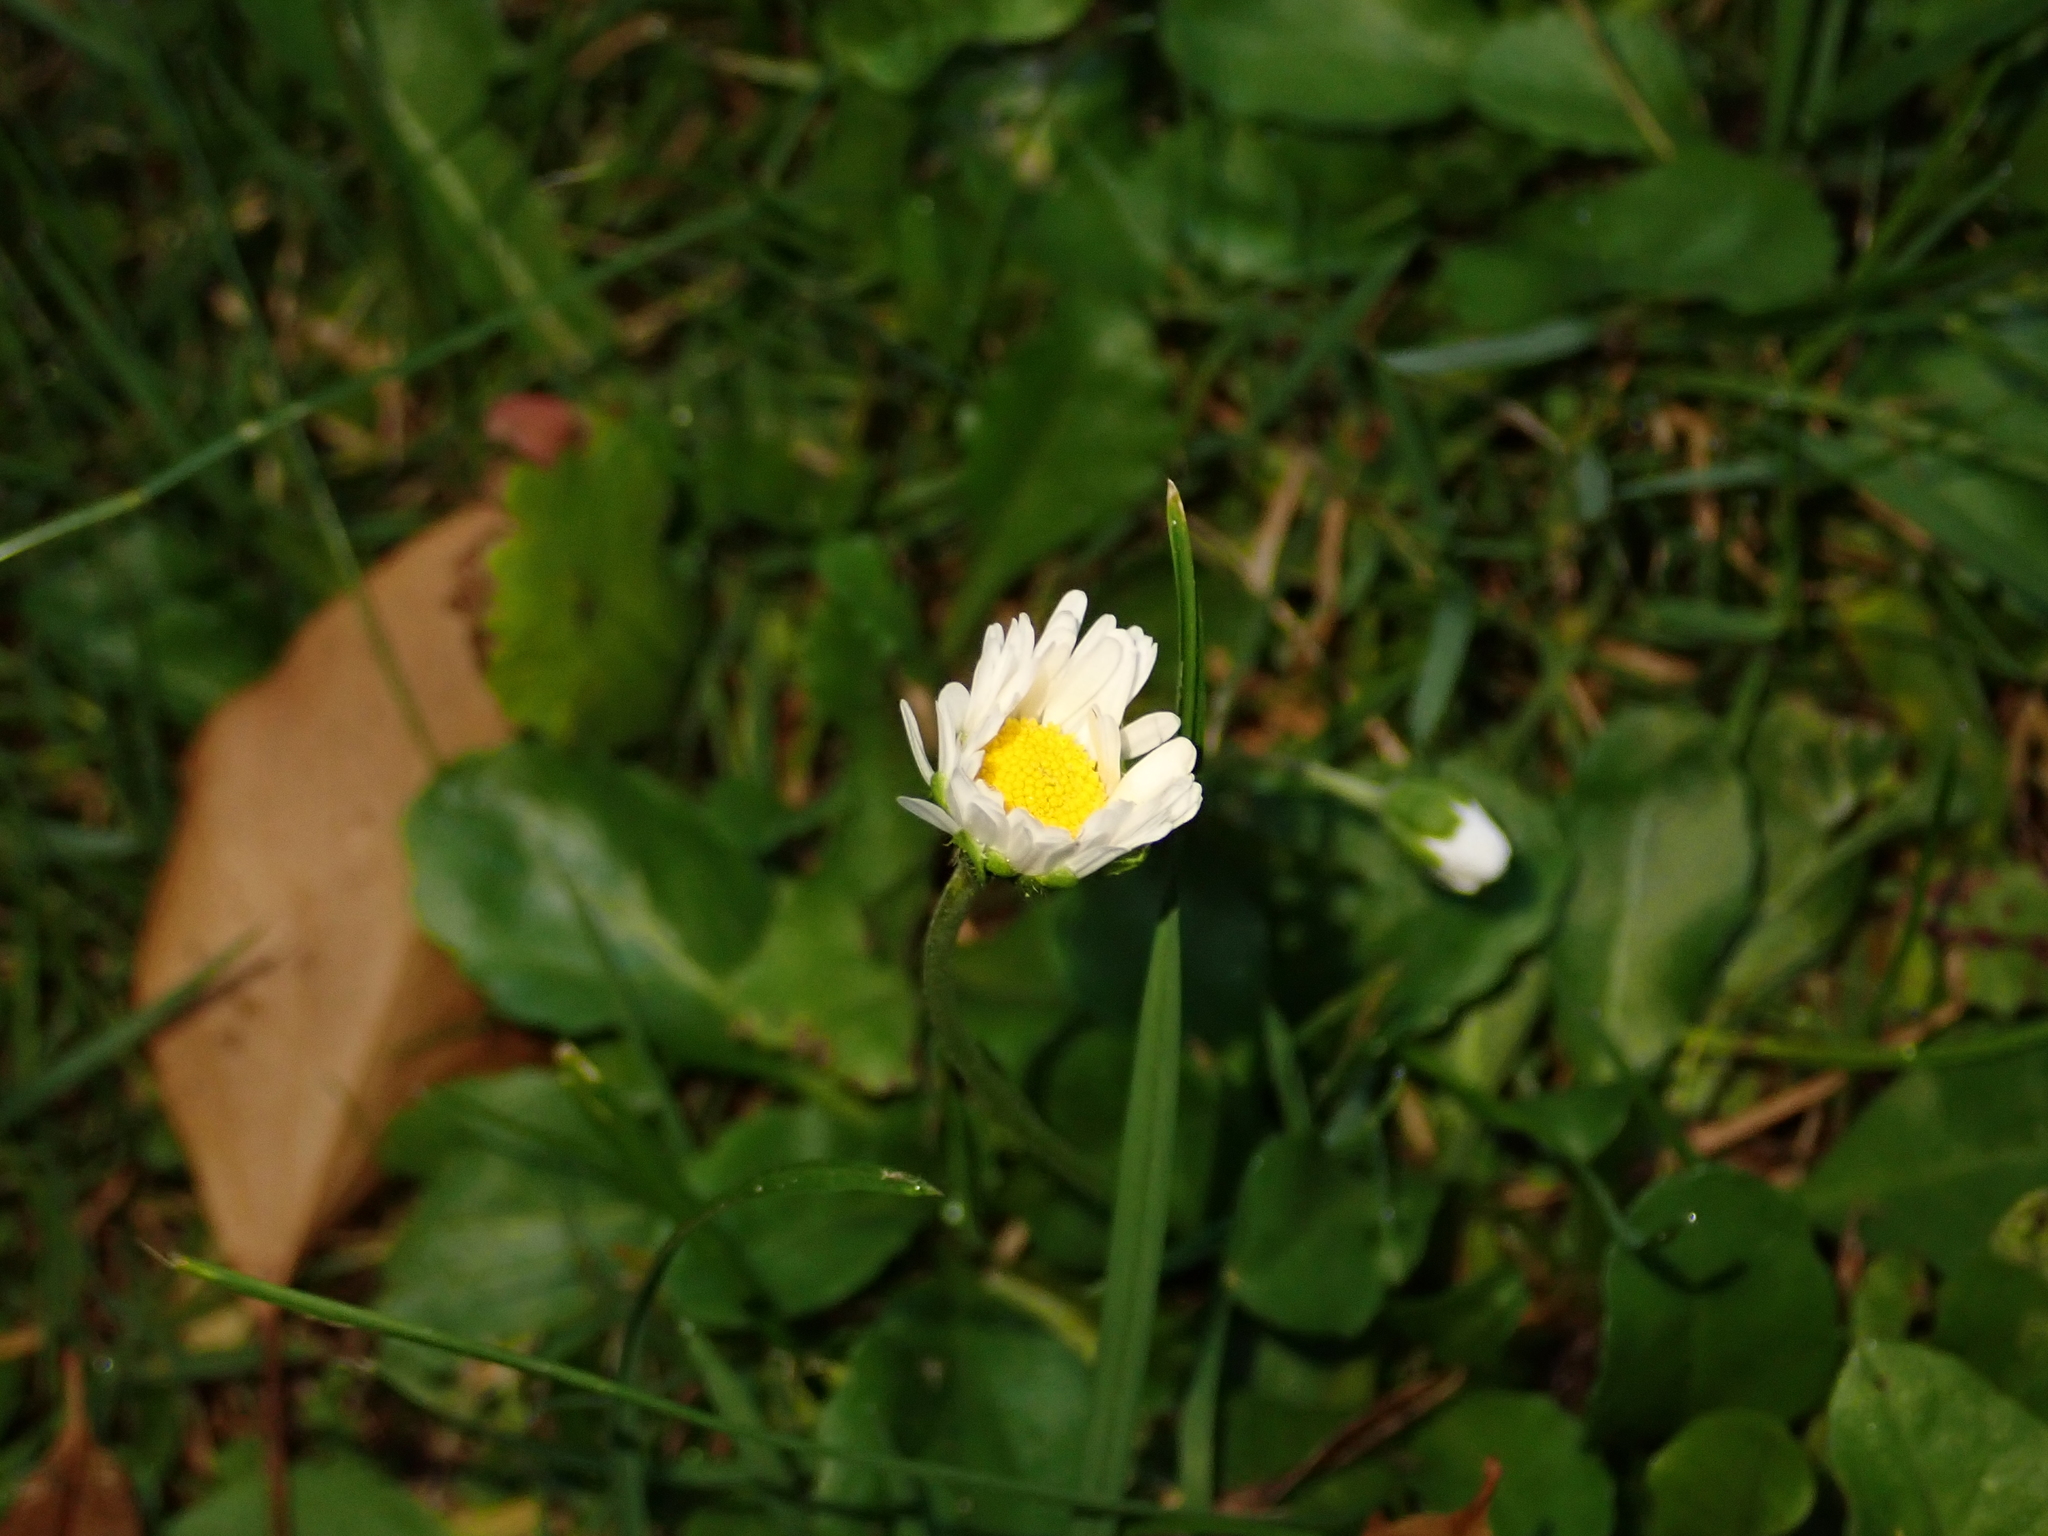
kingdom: Plantae
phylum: Tracheophyta
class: Magnoliopsida
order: Asterales
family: Asteraceae
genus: Bellis
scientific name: Bellis perennis
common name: Lawndaisy
